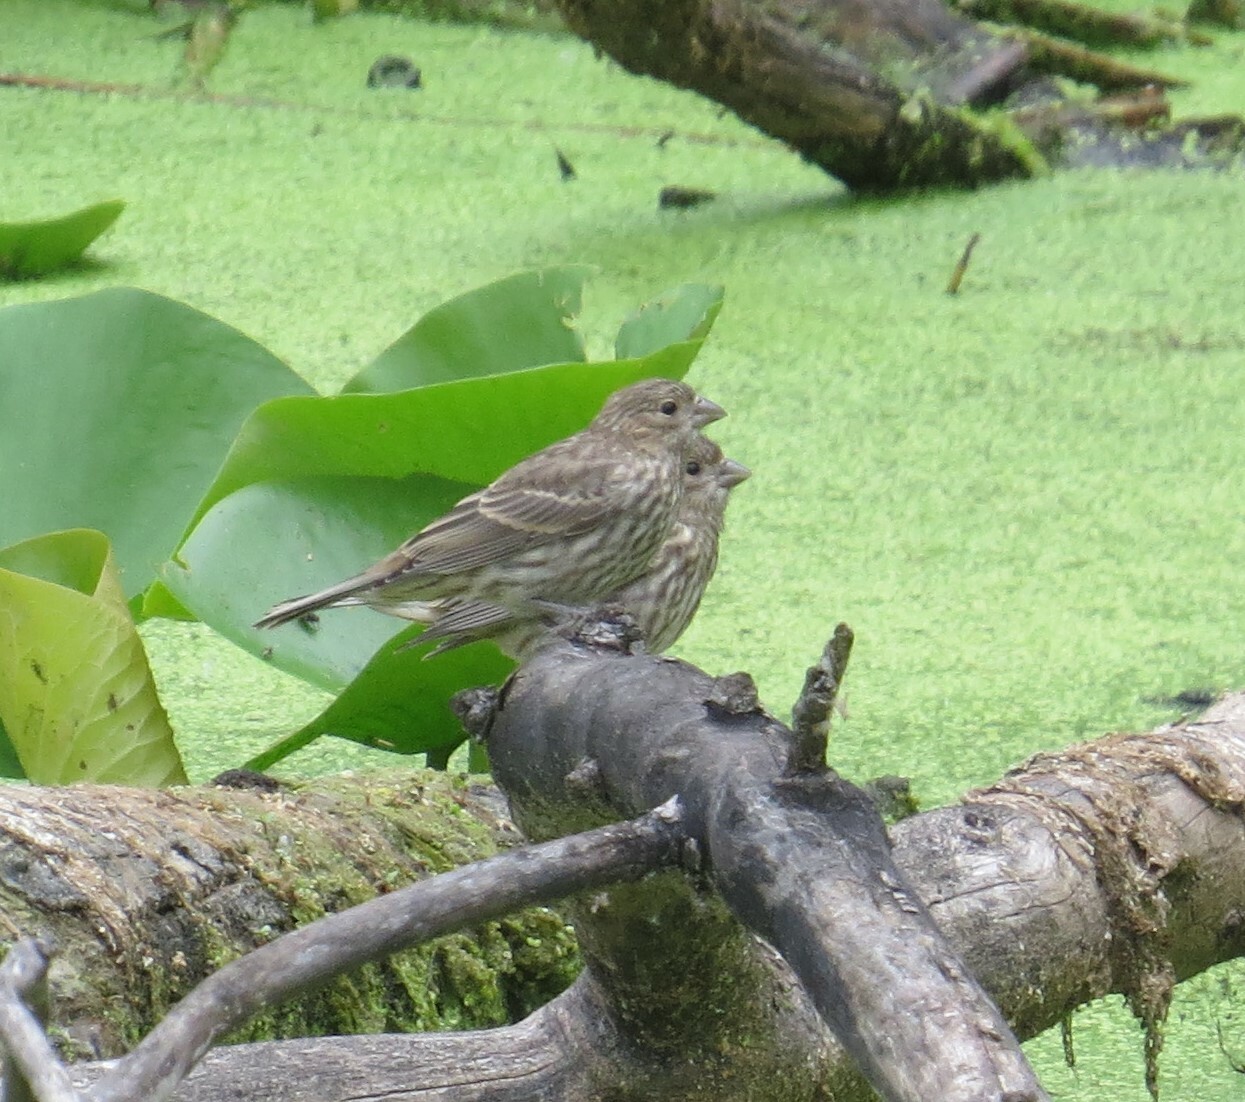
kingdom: Animalia
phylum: Chordata
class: Aves
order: Passeriformes
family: Fringillidae
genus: Haemorhous
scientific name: Haemorhous mexicanus
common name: House finch
